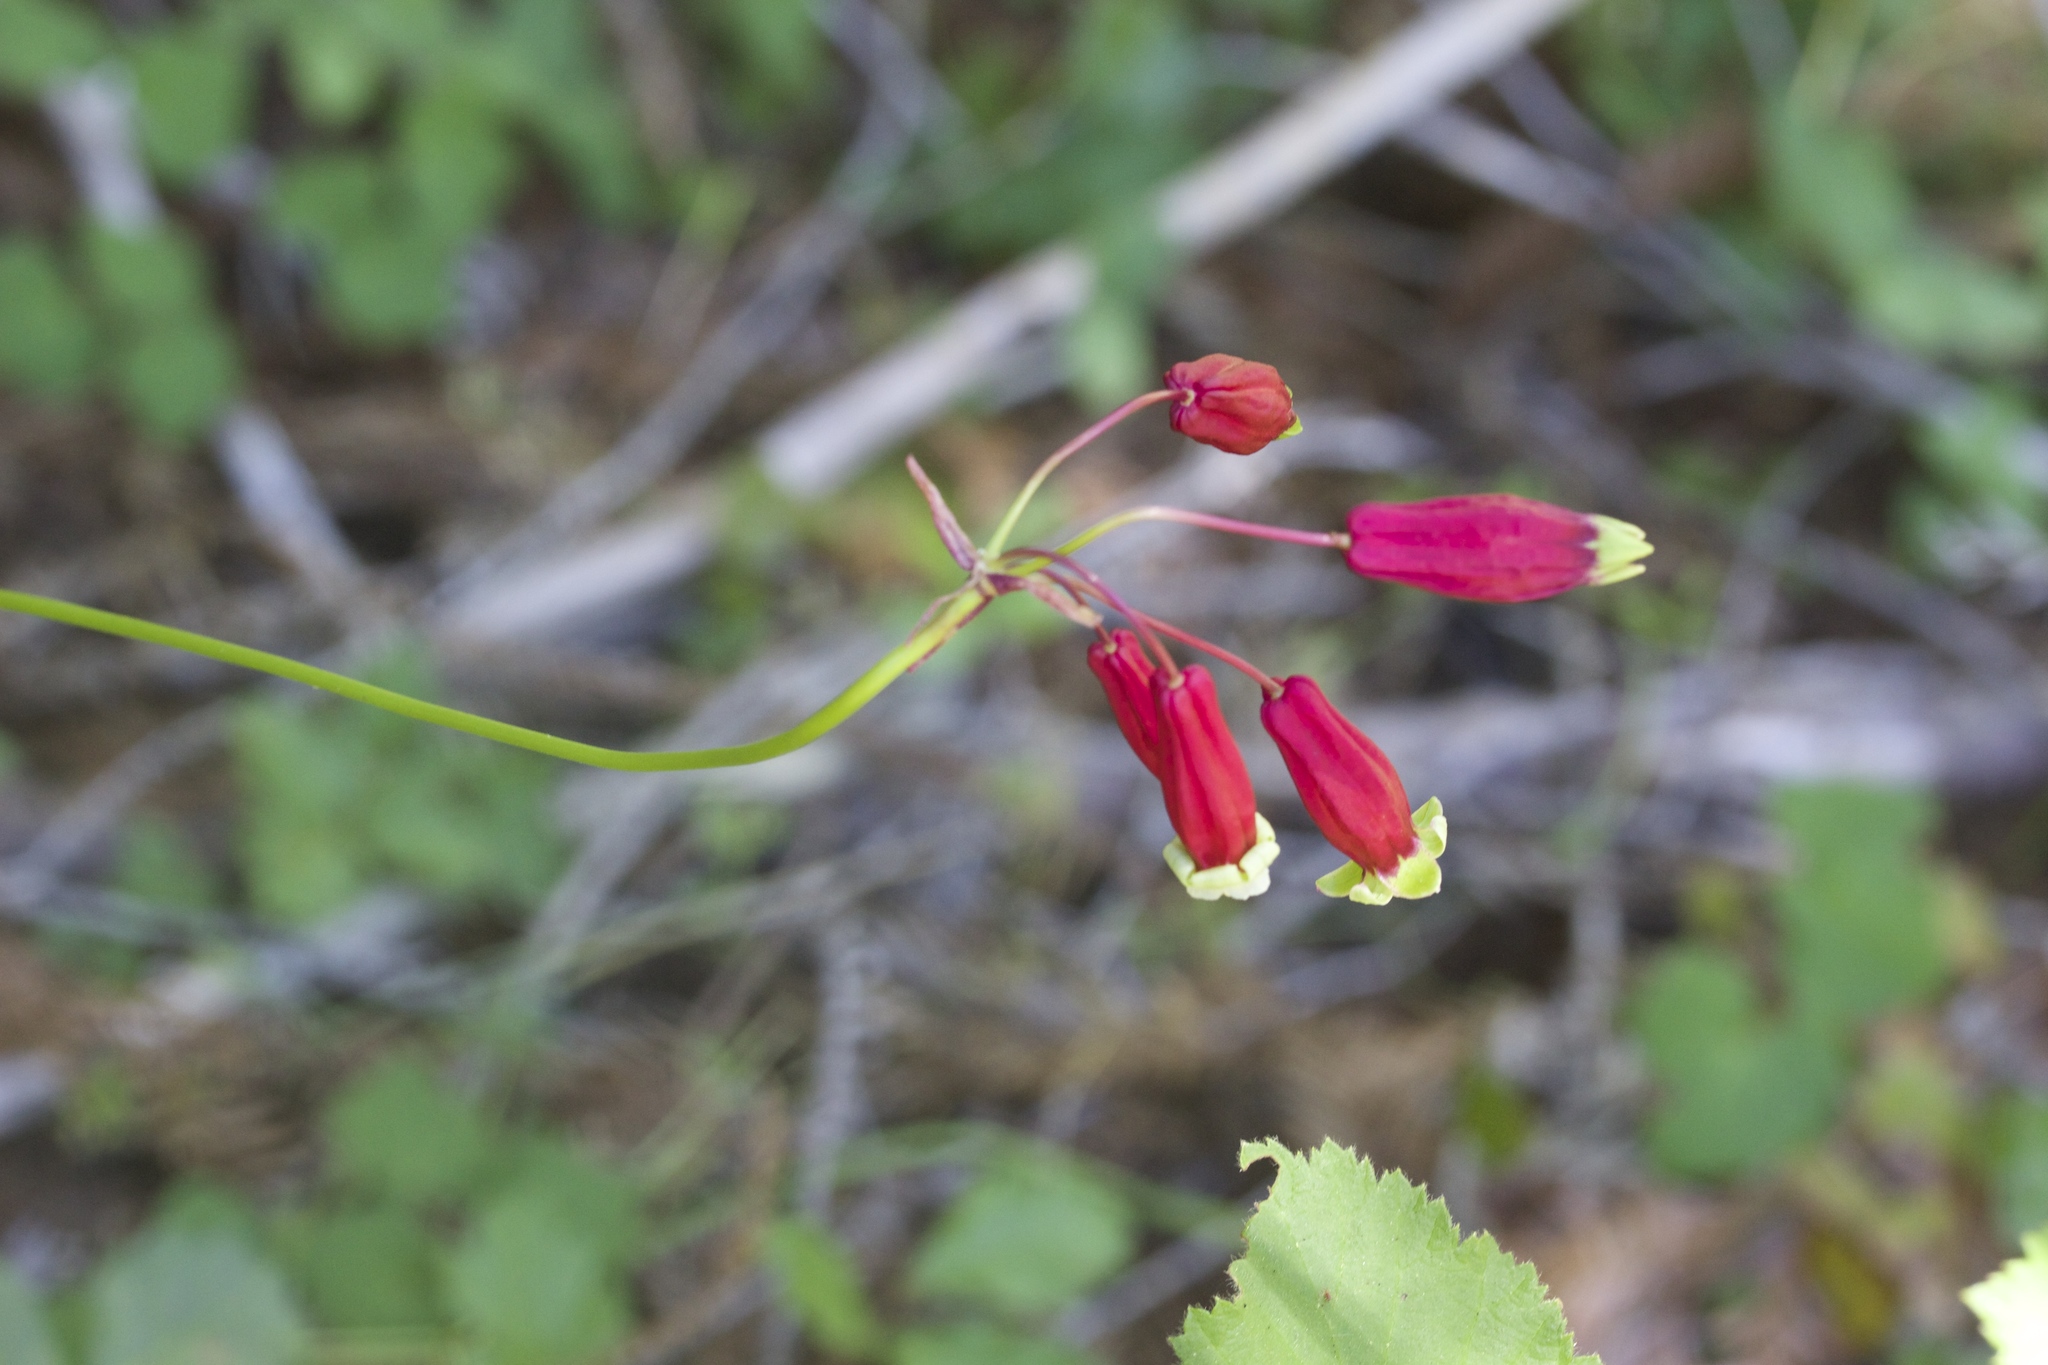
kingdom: Plantae
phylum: Tracheophyta
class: Liliopsida
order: Asparagales
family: Asparagaceae
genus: Dichelostemma
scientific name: Dichelostemma ida-maia
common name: Firecracker-flower
